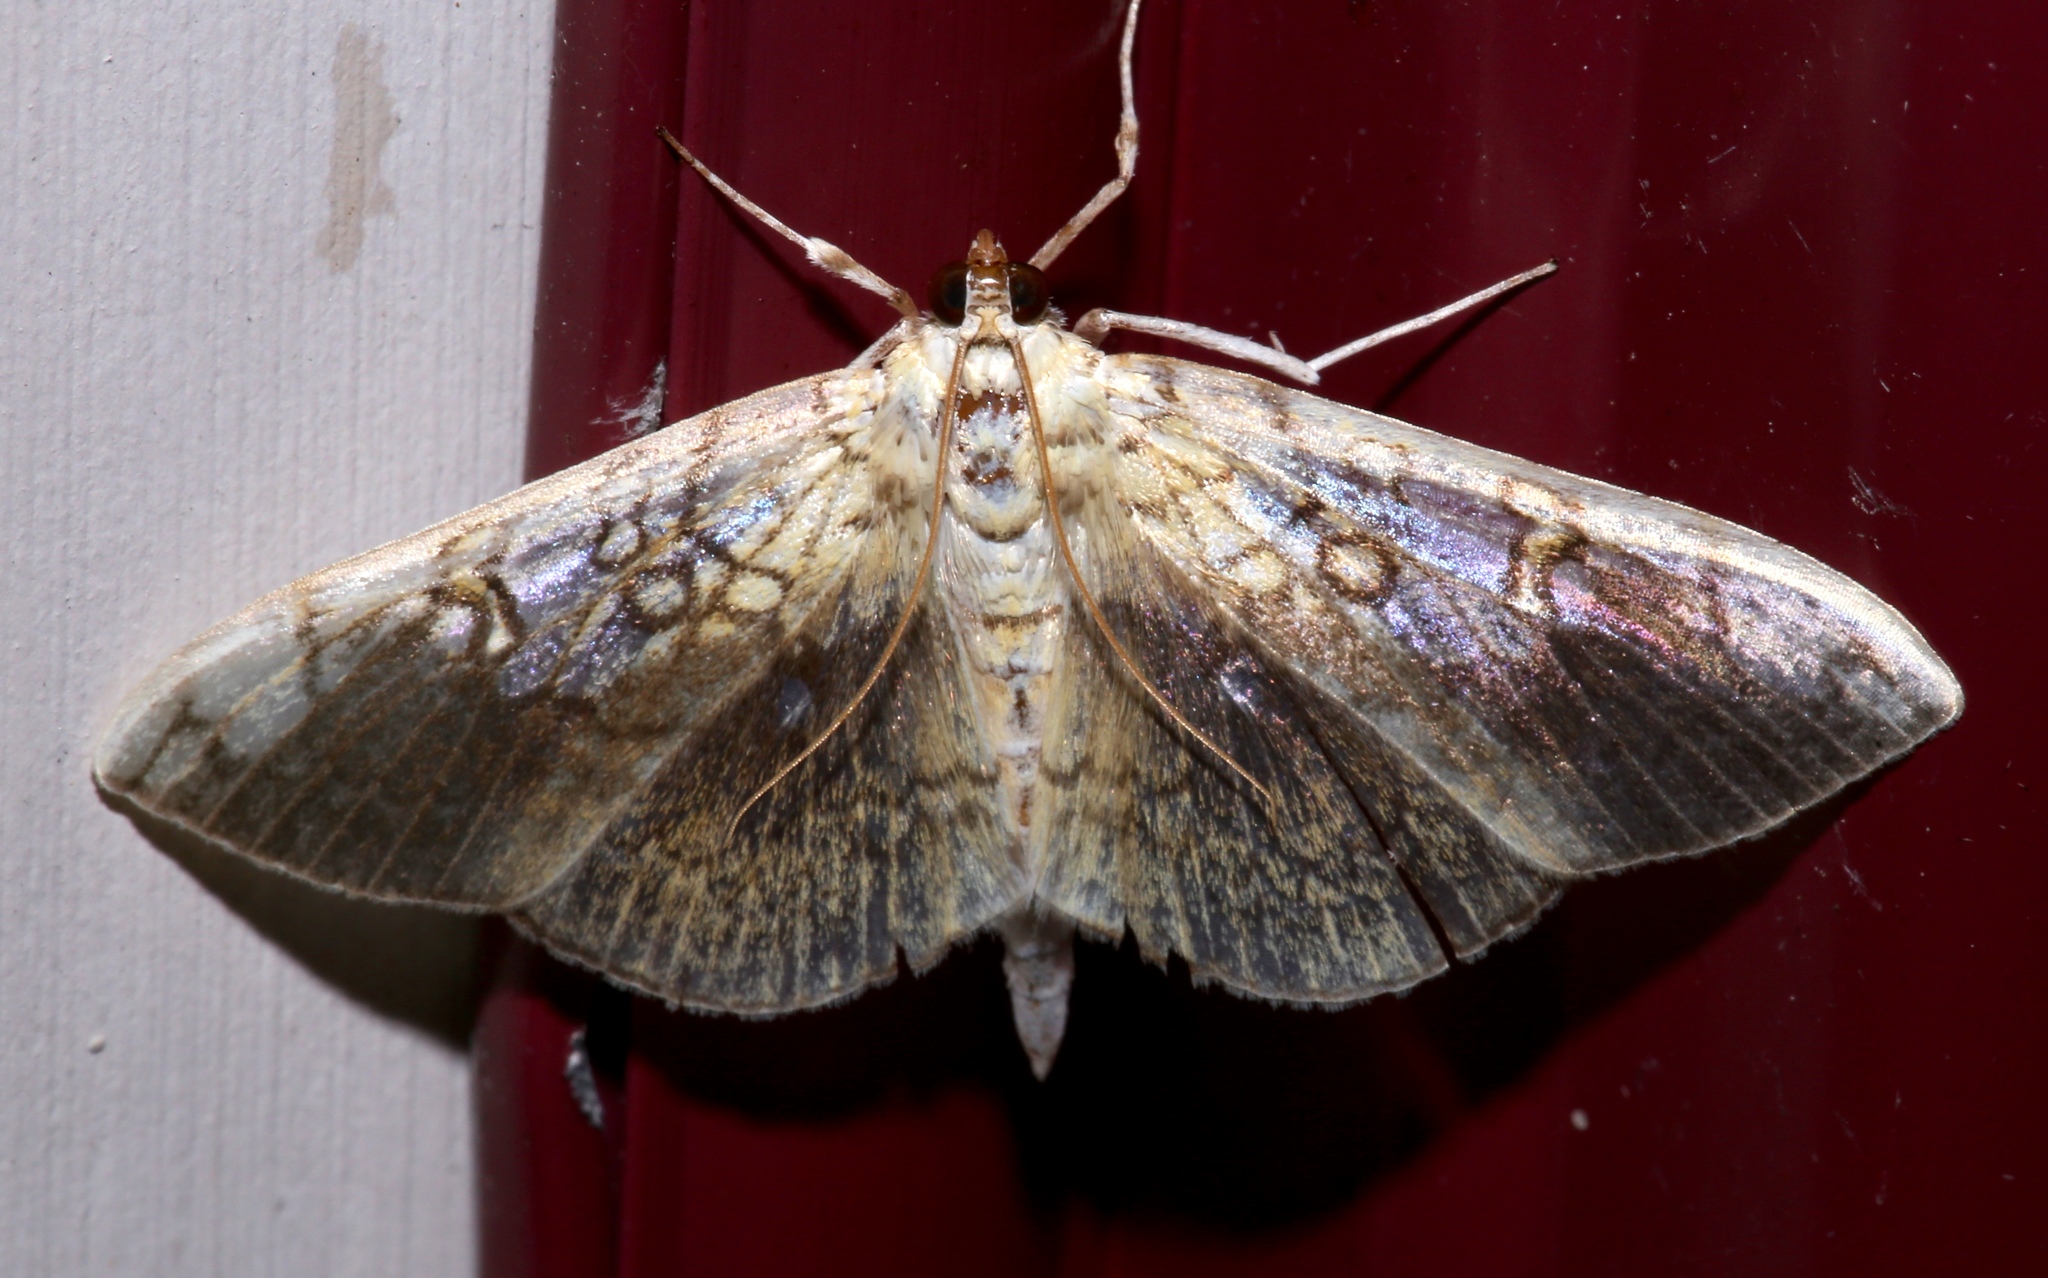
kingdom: Animalia
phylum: Arthropoda
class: Insecta
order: Lepidoptera
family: Crambidae
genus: Pantographa
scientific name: Pantographa limata
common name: Basswood leafroller moth
